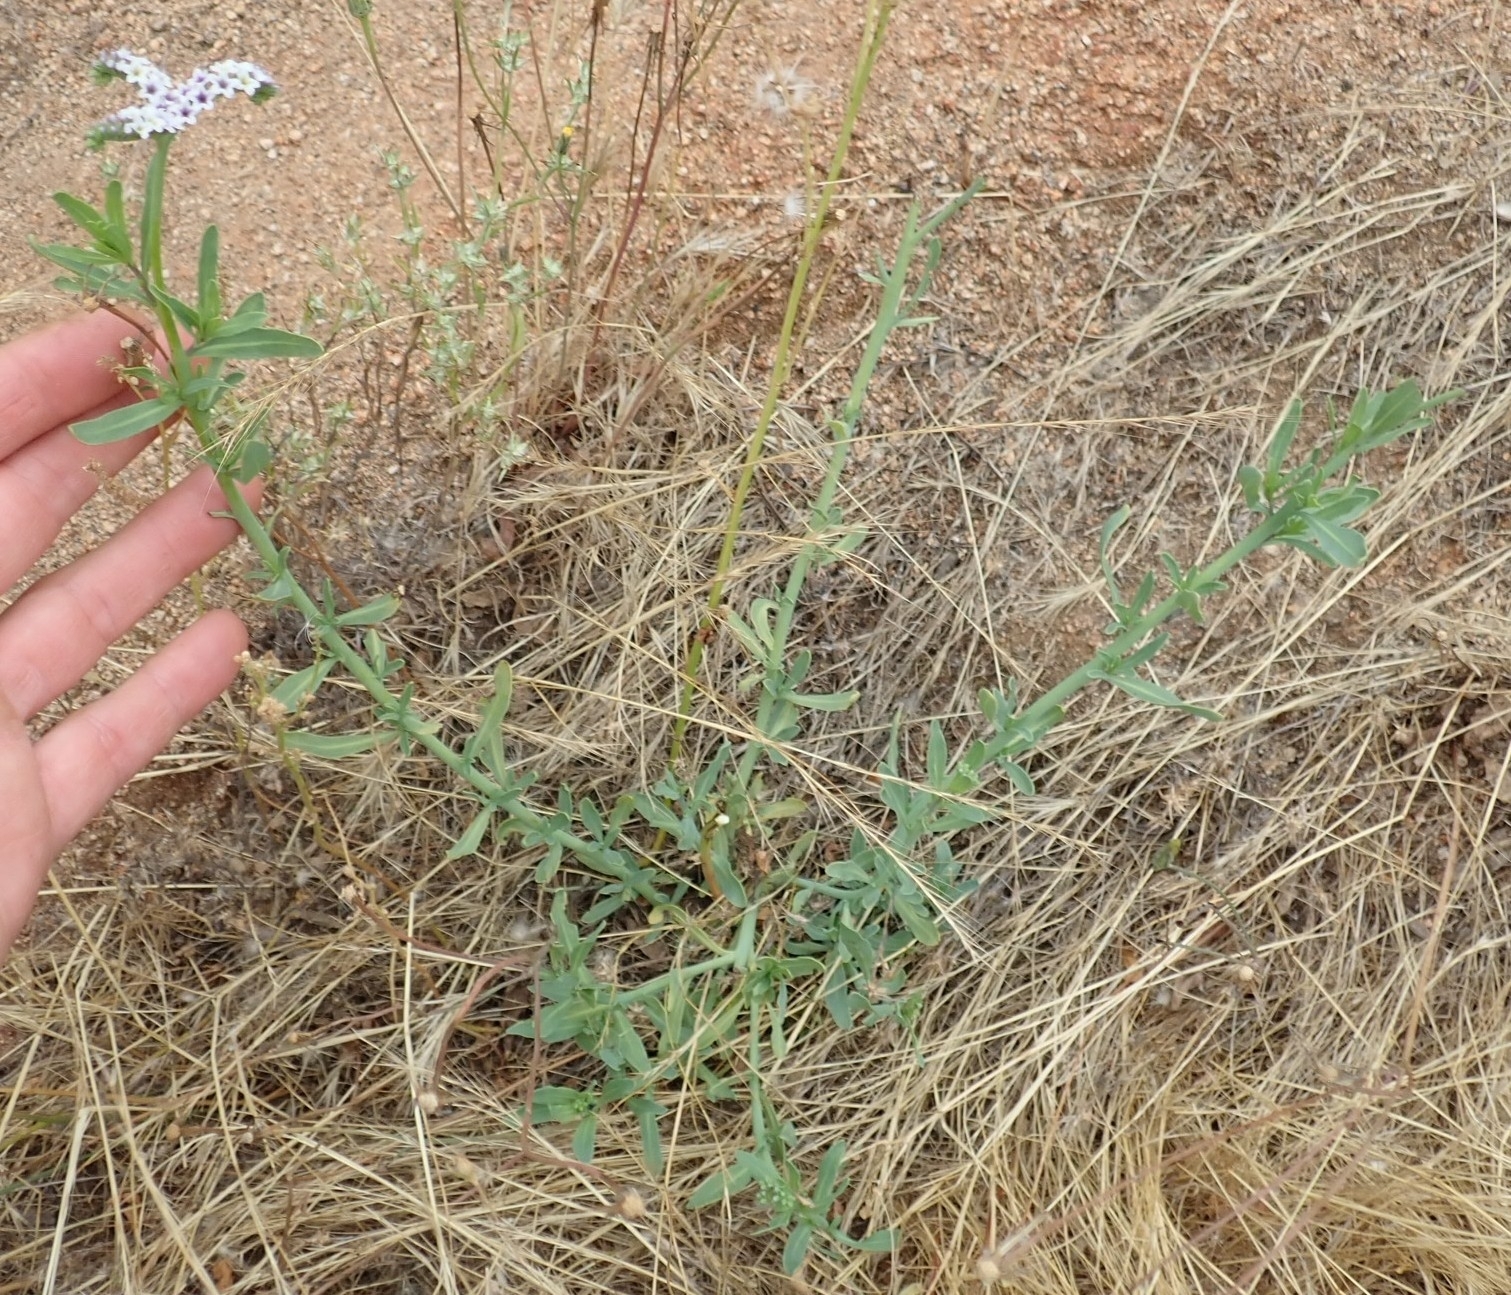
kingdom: Plantae
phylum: Tracheophyta
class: Magnoliopsida
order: Boraginales
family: Heliotropiaceae
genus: Heliotropium
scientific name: Heliotropium curassavicum
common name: Seaside heliotrope
